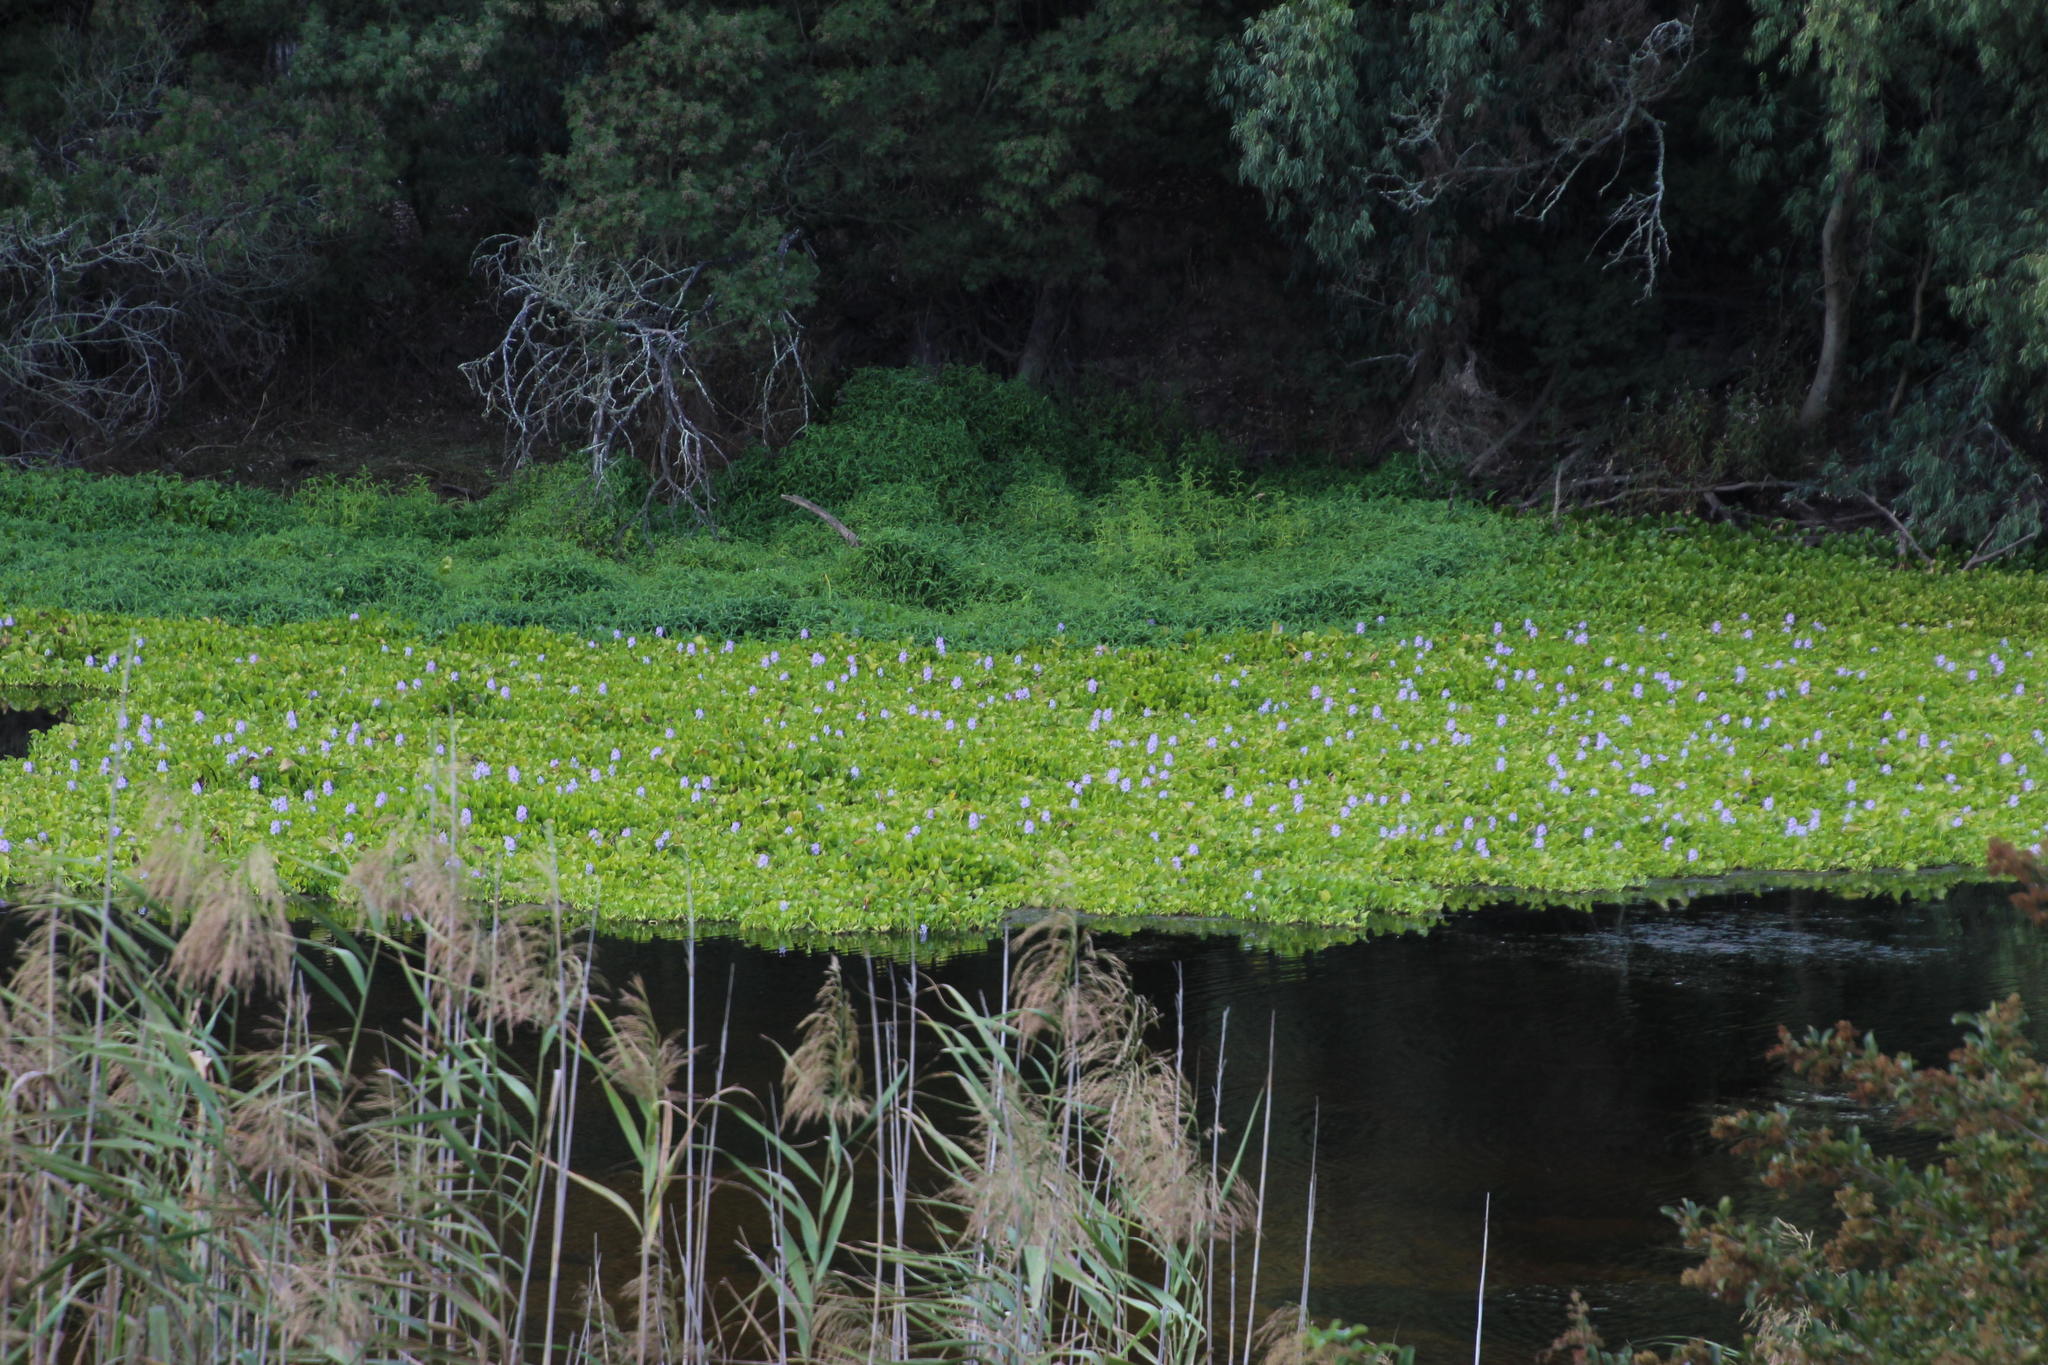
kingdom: Plantae
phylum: Tracheophyta
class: Liliopsida
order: Commelinales
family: Pontederiaceae
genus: Pontederia
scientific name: Pontederia crassipes
